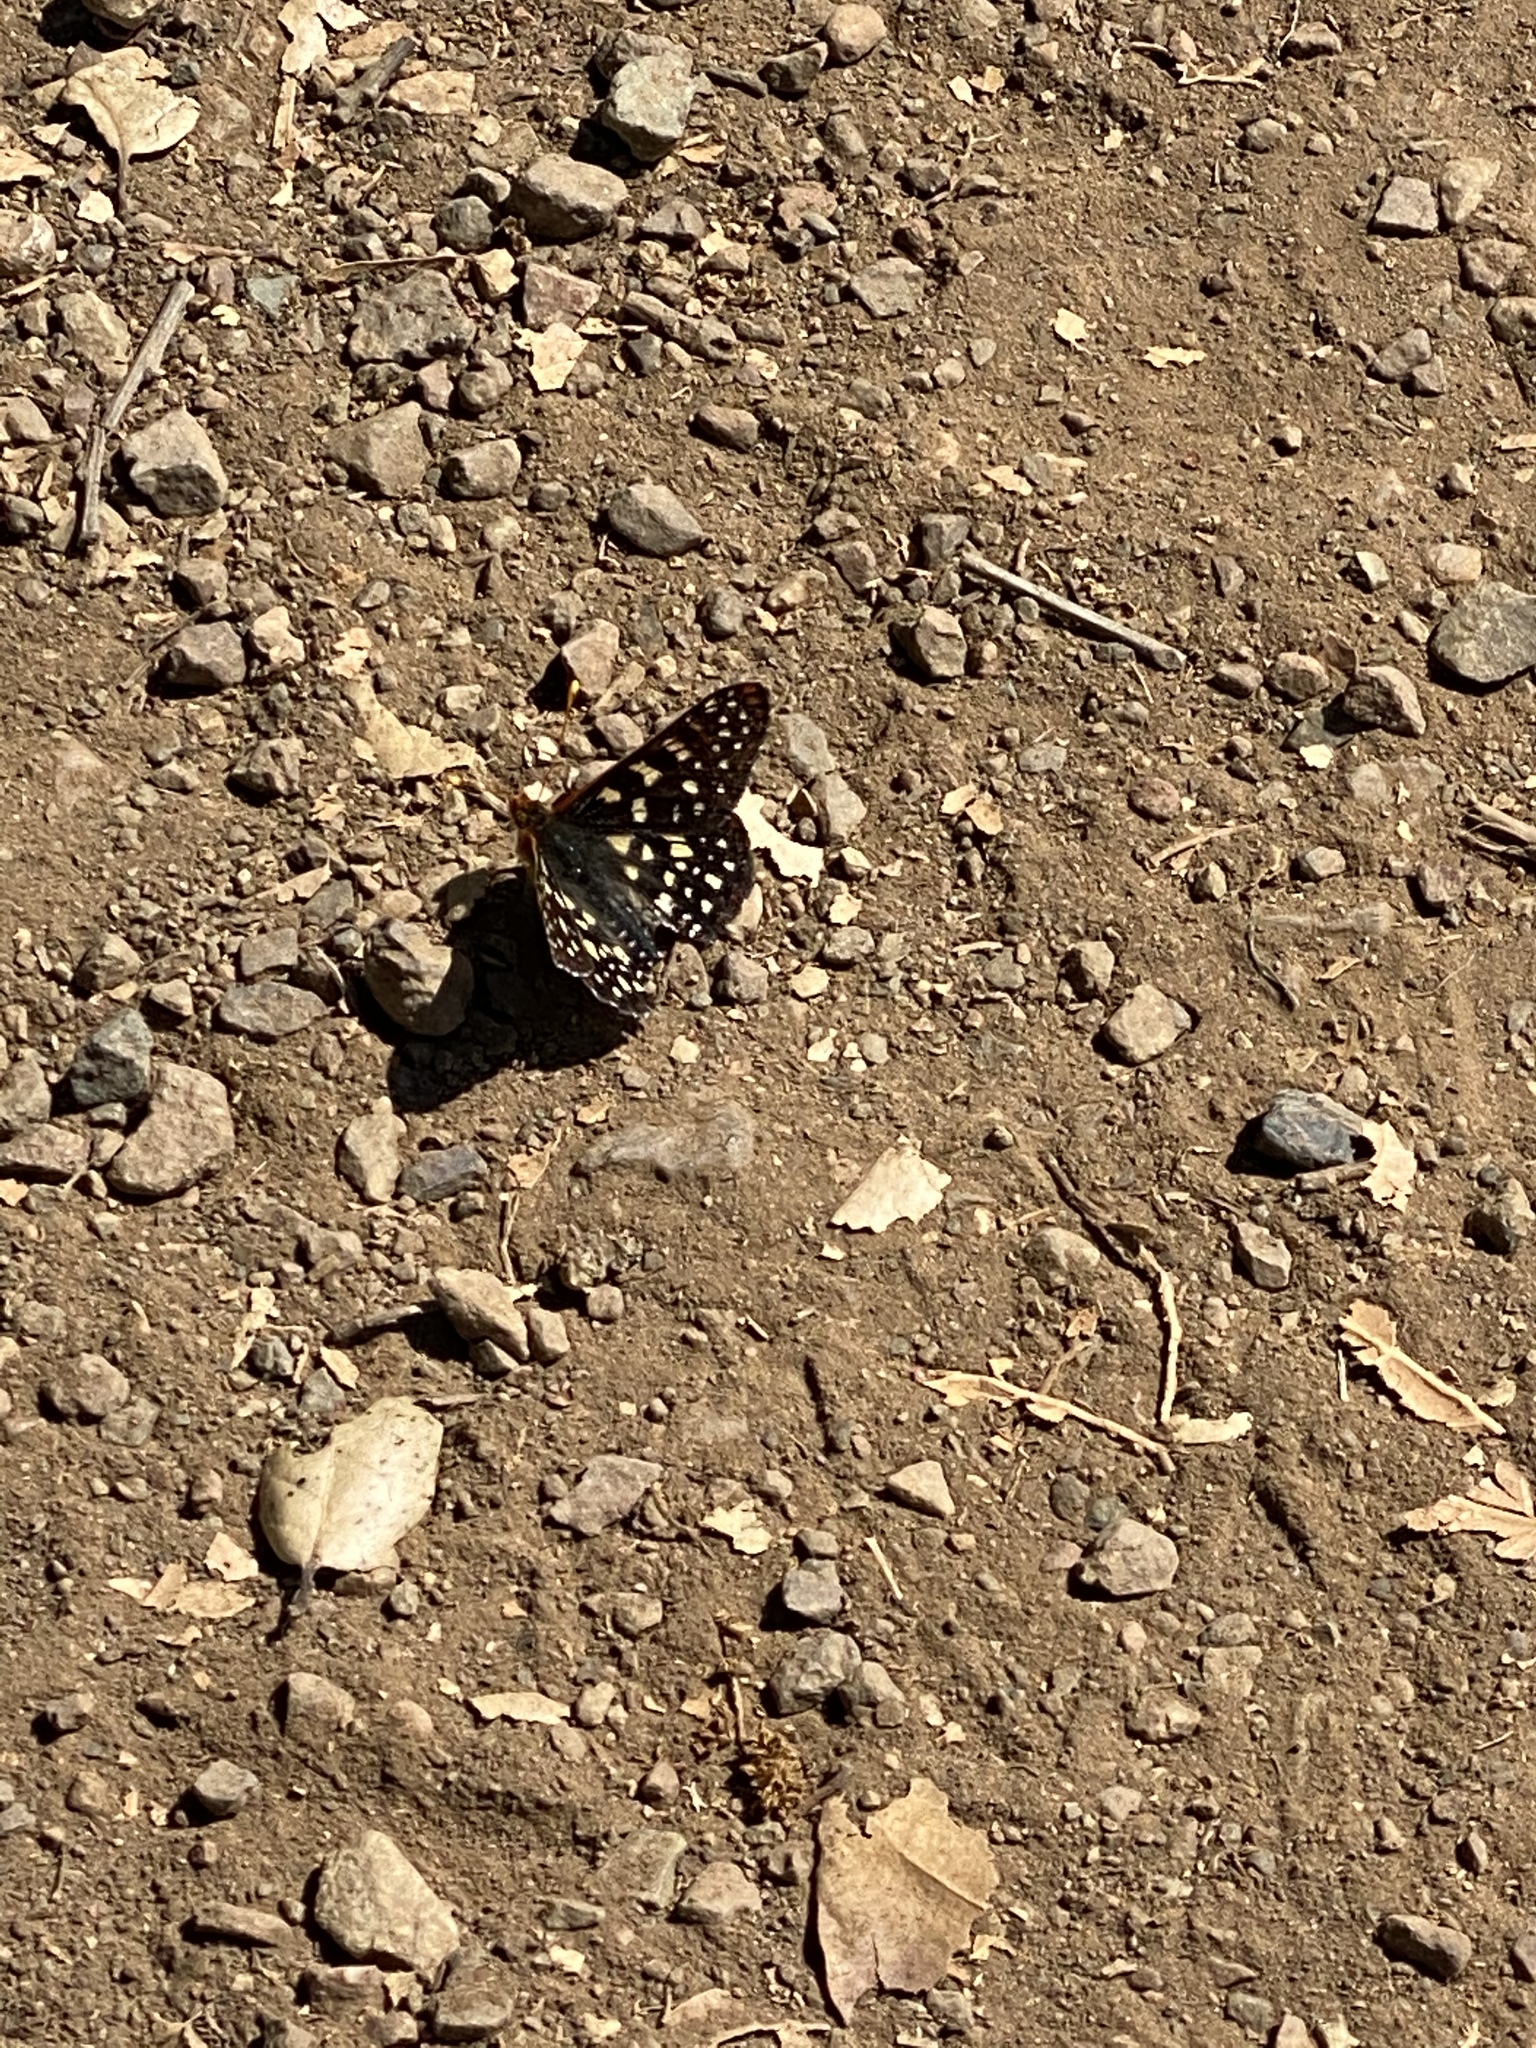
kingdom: Animalia
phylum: Arthropoda
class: Insecta
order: Lepidoptera
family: Nymphalidae
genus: Occidryas
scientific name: Occidryas chalcedona
